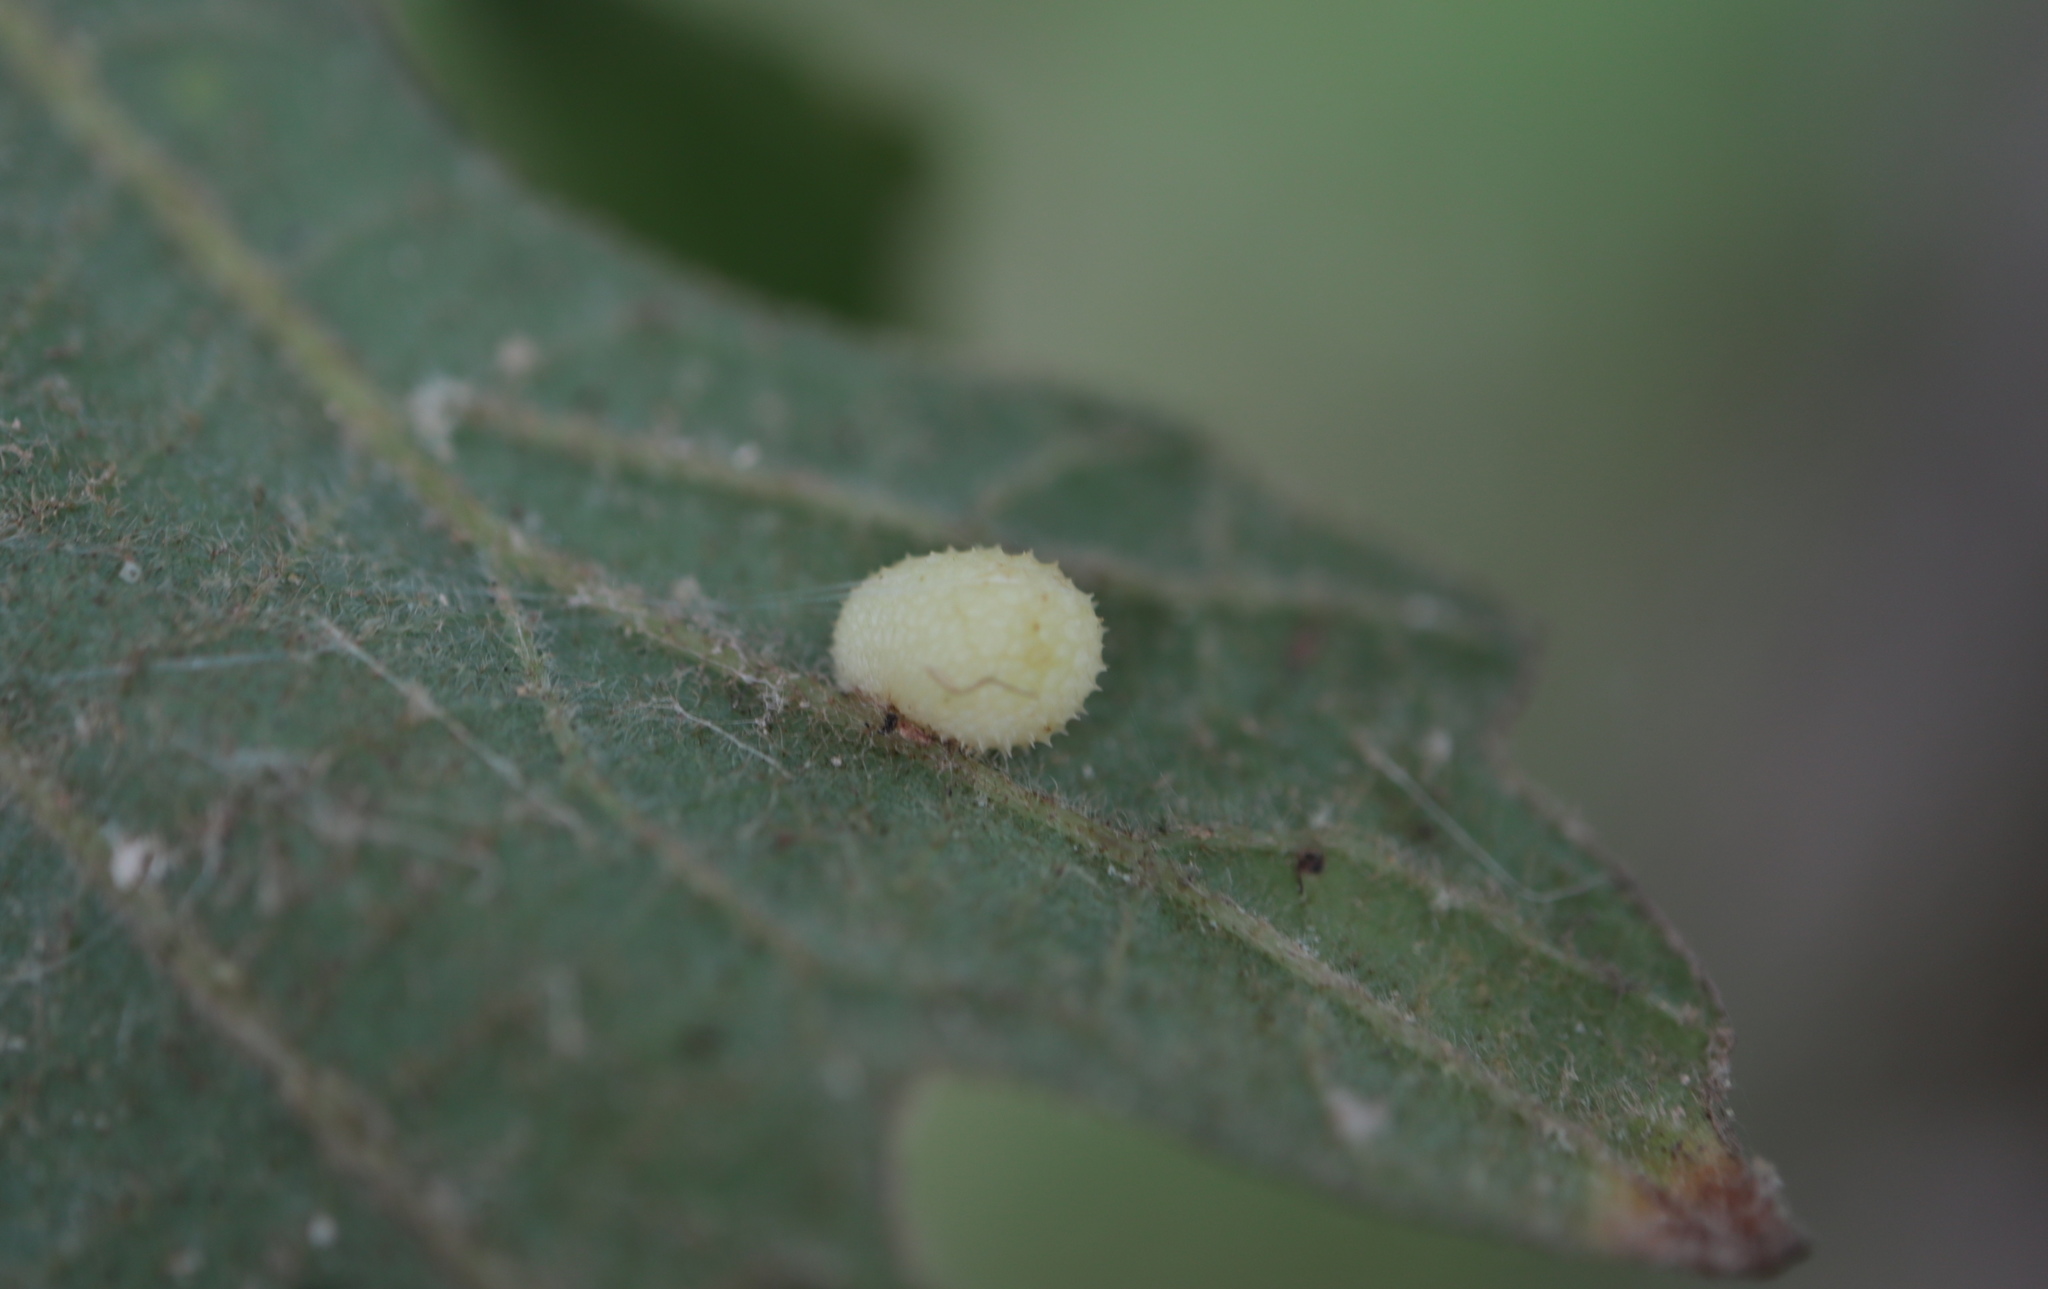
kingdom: Animalia
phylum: Arthropoda
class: Insecta
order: Hymenoptera
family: Cynipidae
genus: Acraspis
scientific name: Acraspis quercushirta
